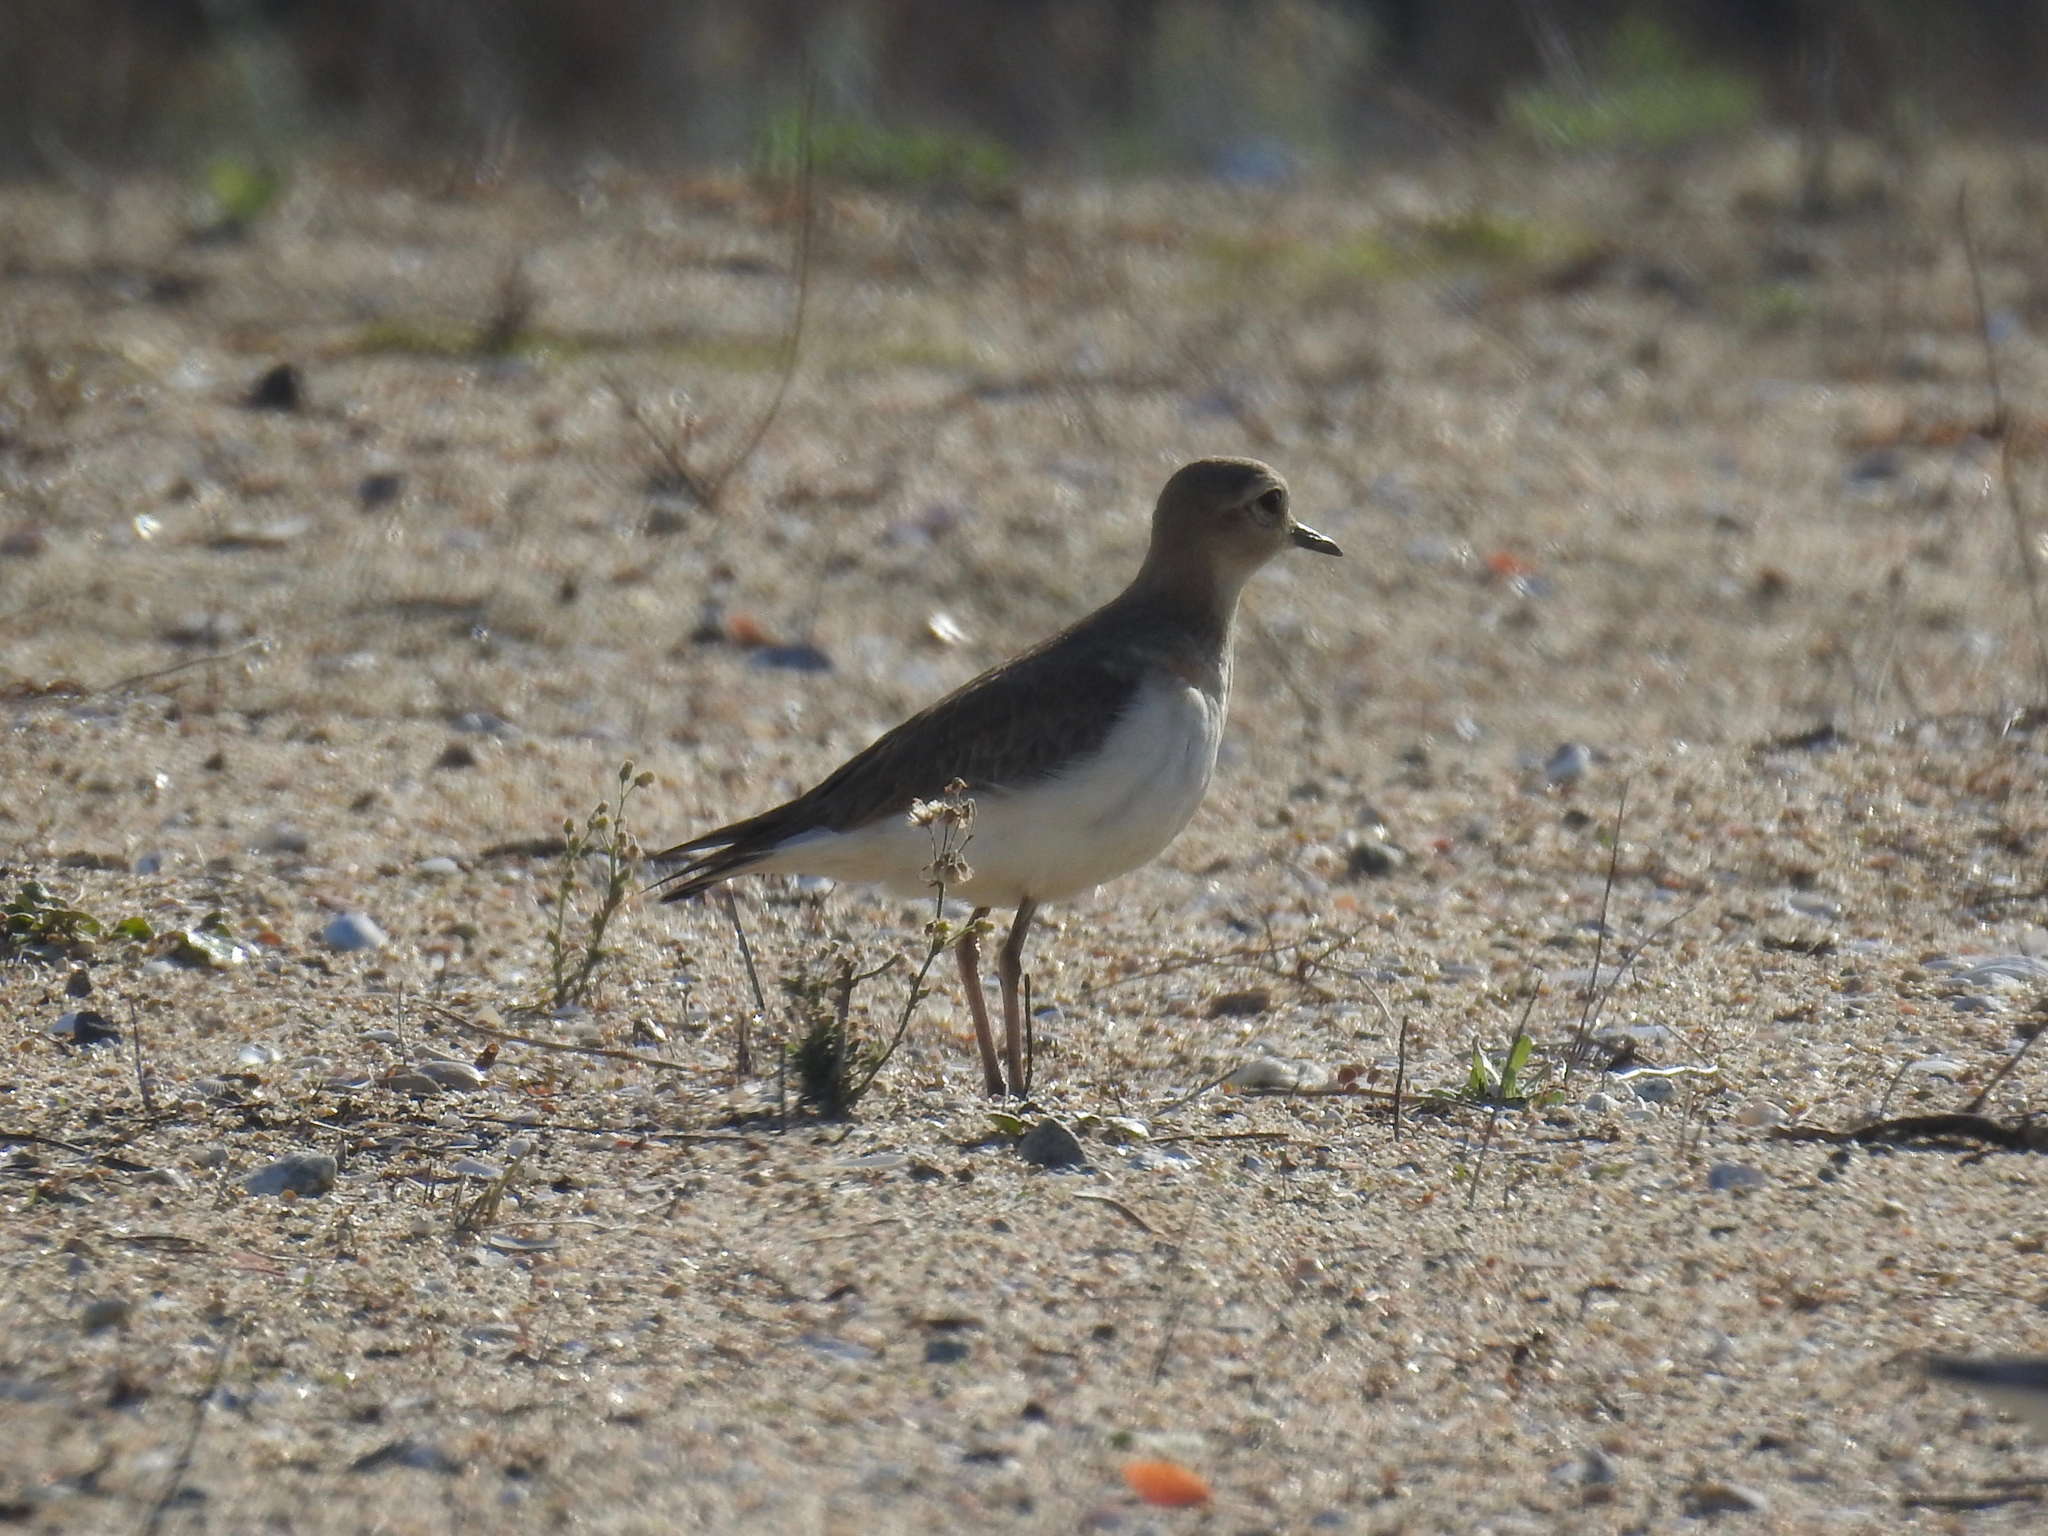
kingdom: Animalia
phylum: Chordata
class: Aves
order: Charadriiformes
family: Charadriidae
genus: Anarhynchus
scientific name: Anarhynchus
